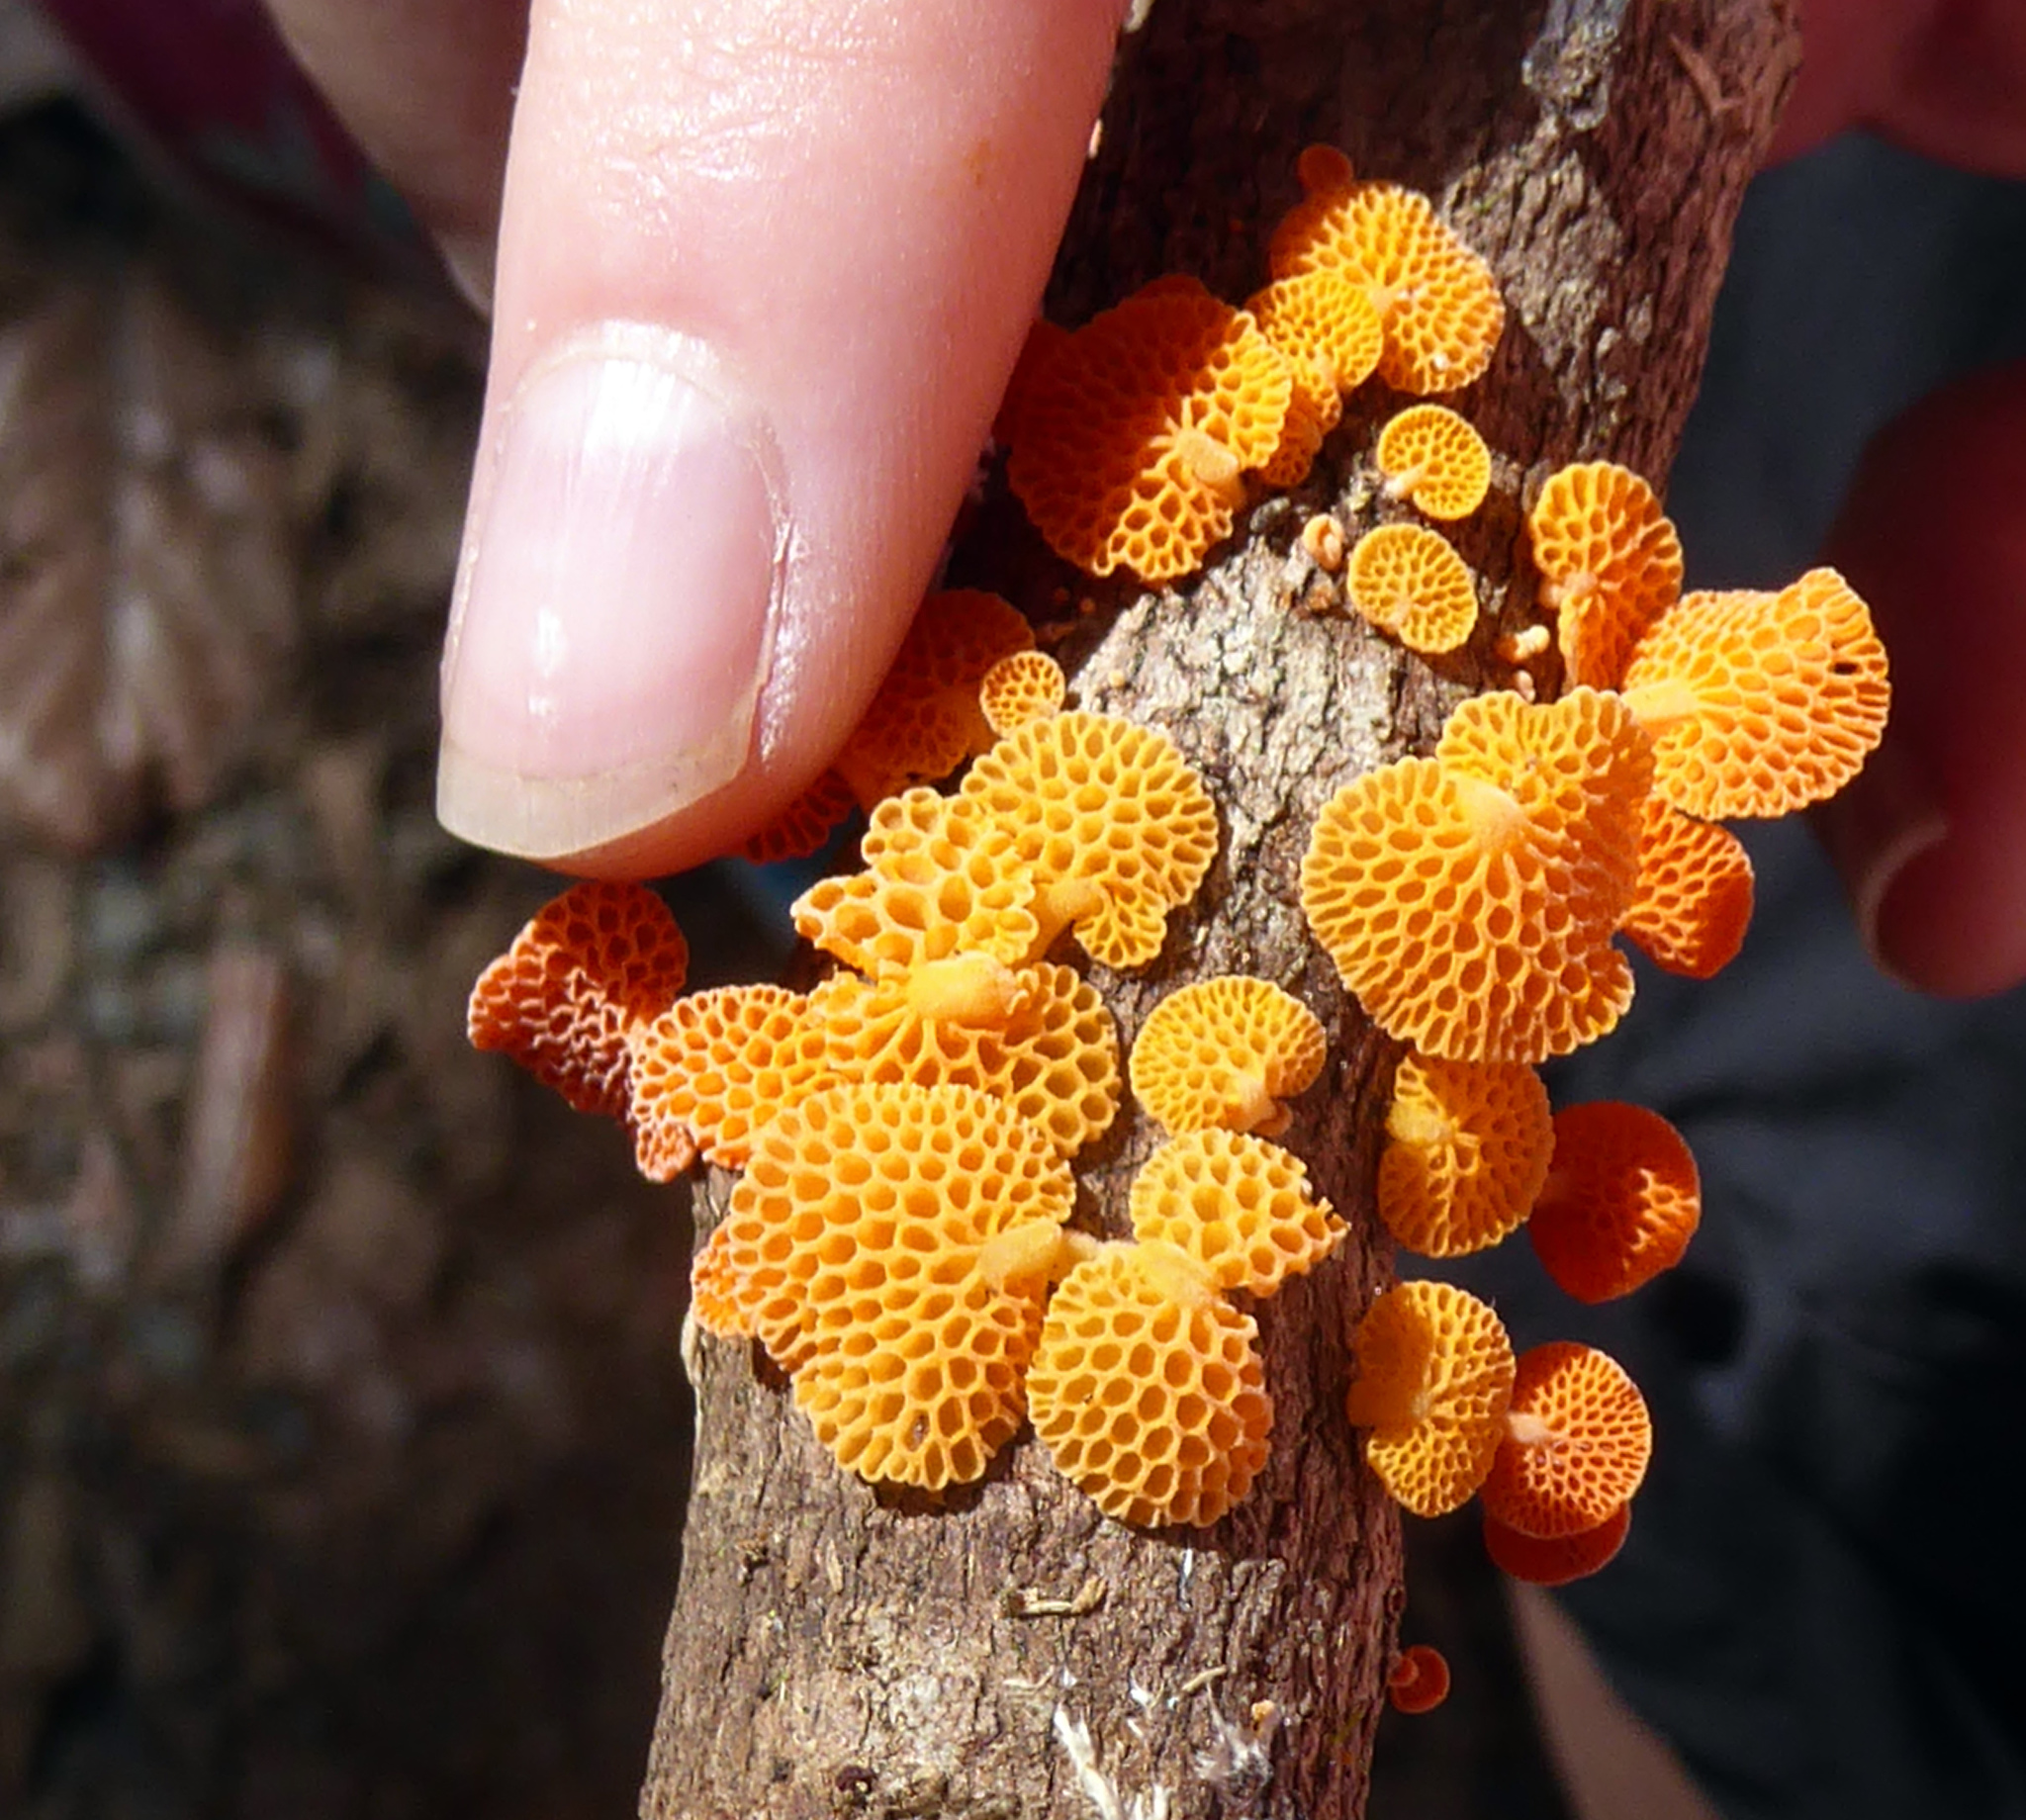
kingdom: Fungi
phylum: Basidiomycota
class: Agaricomycetes
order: Agaricales
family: Mycenaceae
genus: Favolaschia
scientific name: Favolaschia claudopus
